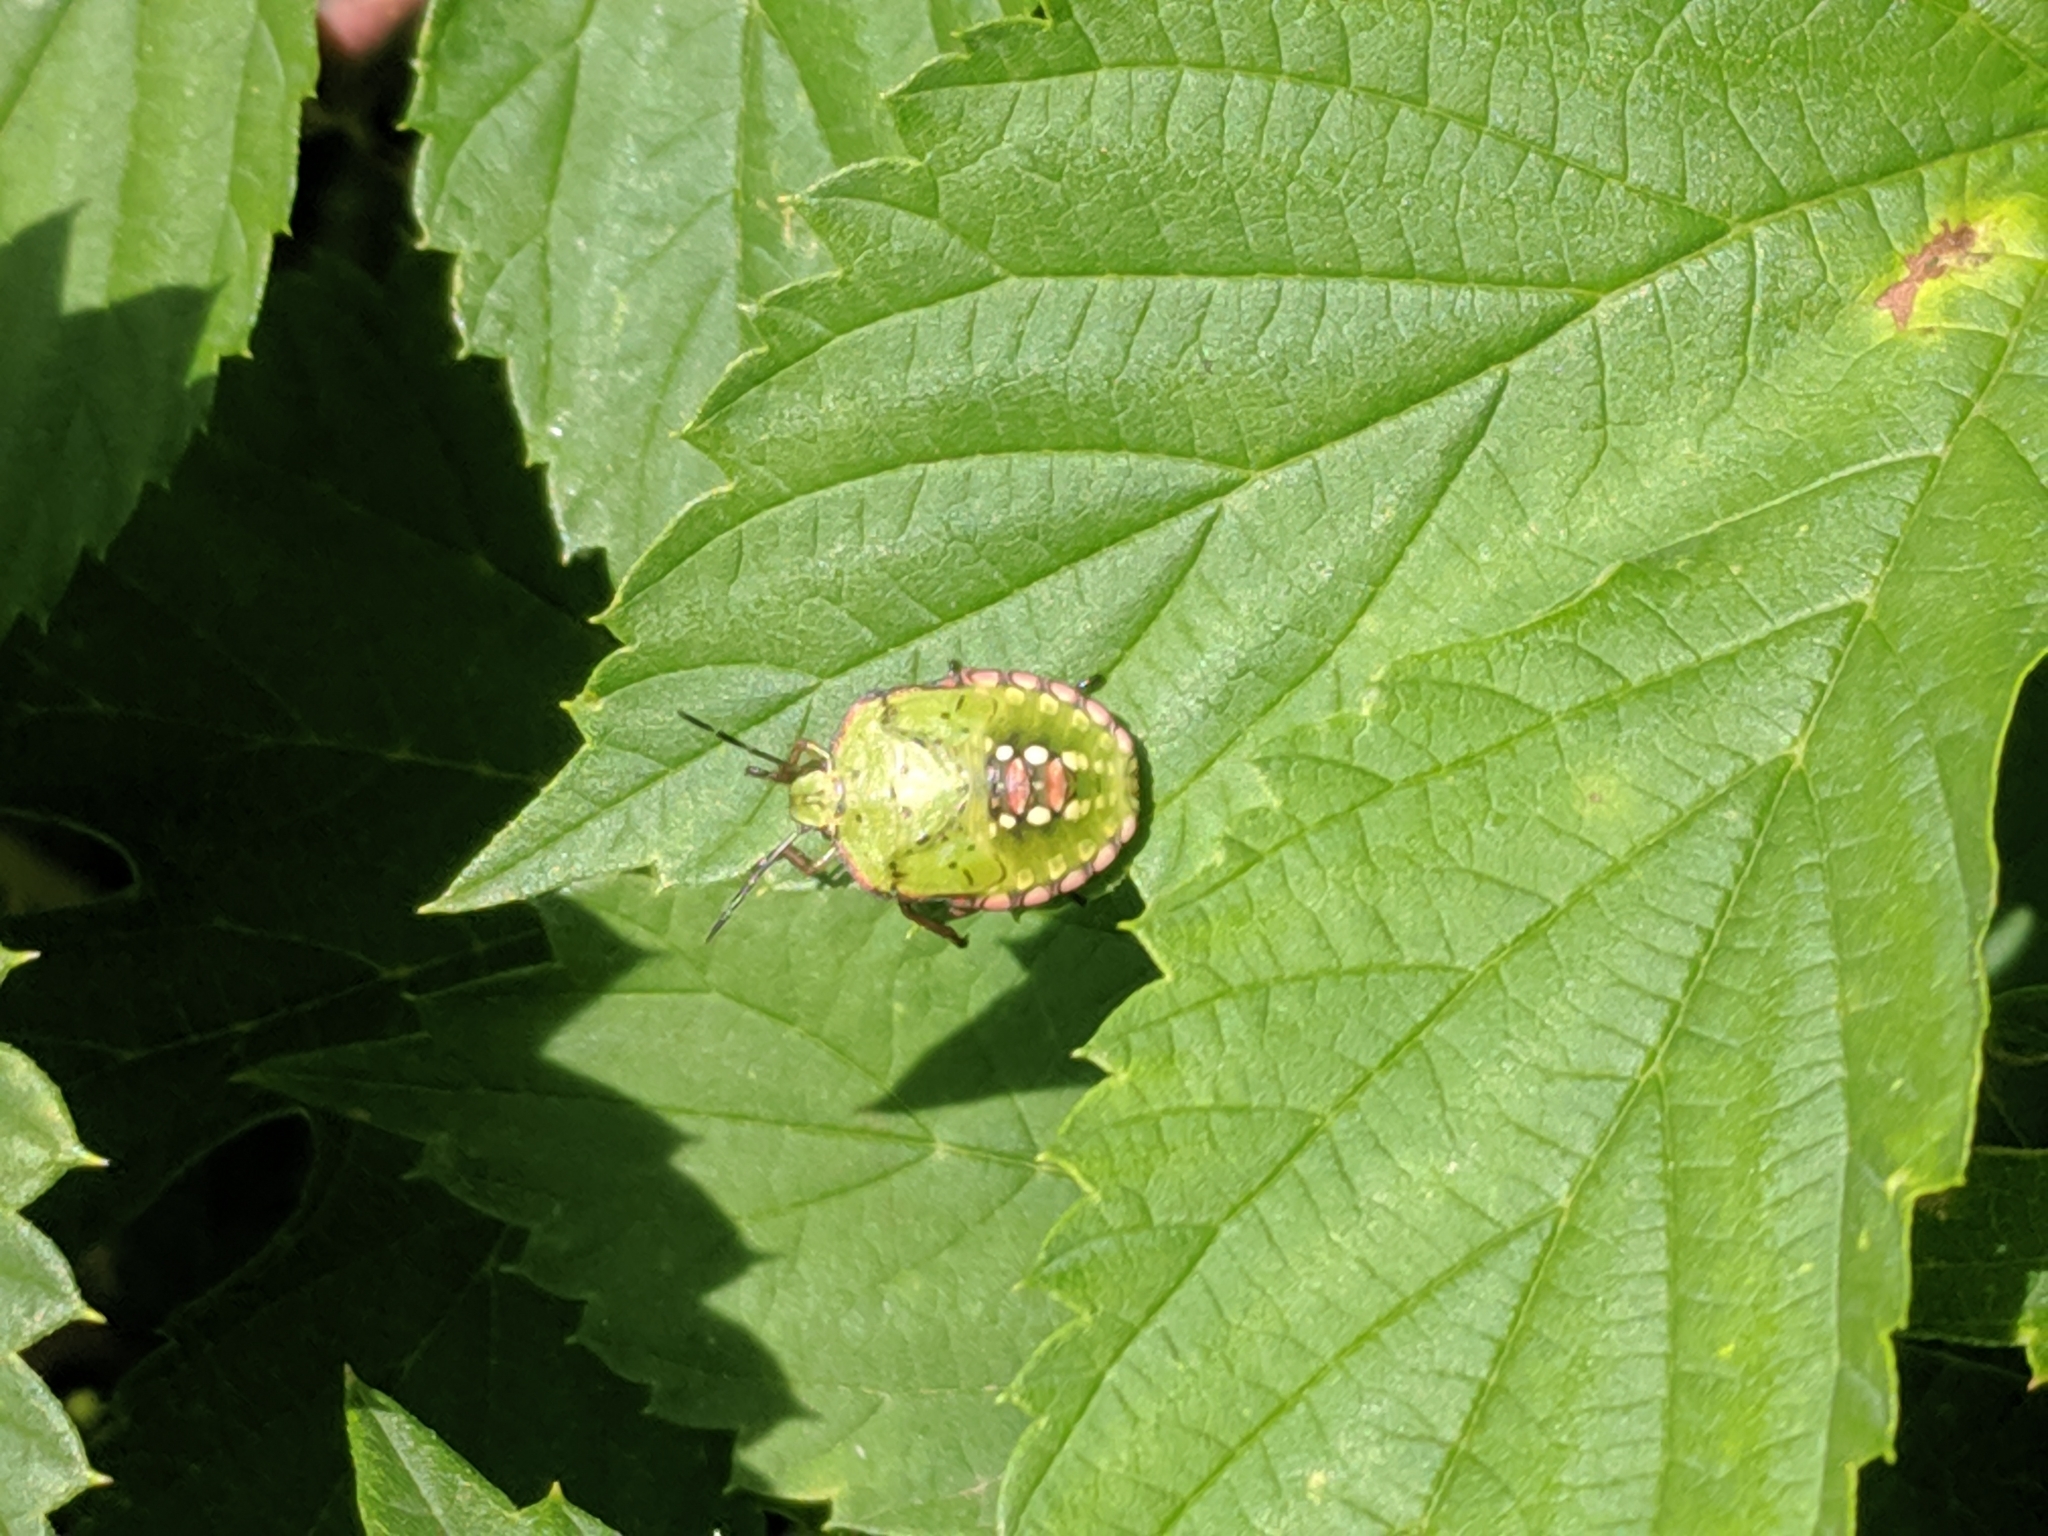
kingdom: Animalia
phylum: Arthropoda
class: Insecta
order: Hemiptera
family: Pentatomidae
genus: Nezara
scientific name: Nezara viridula
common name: Southern green stink bug
